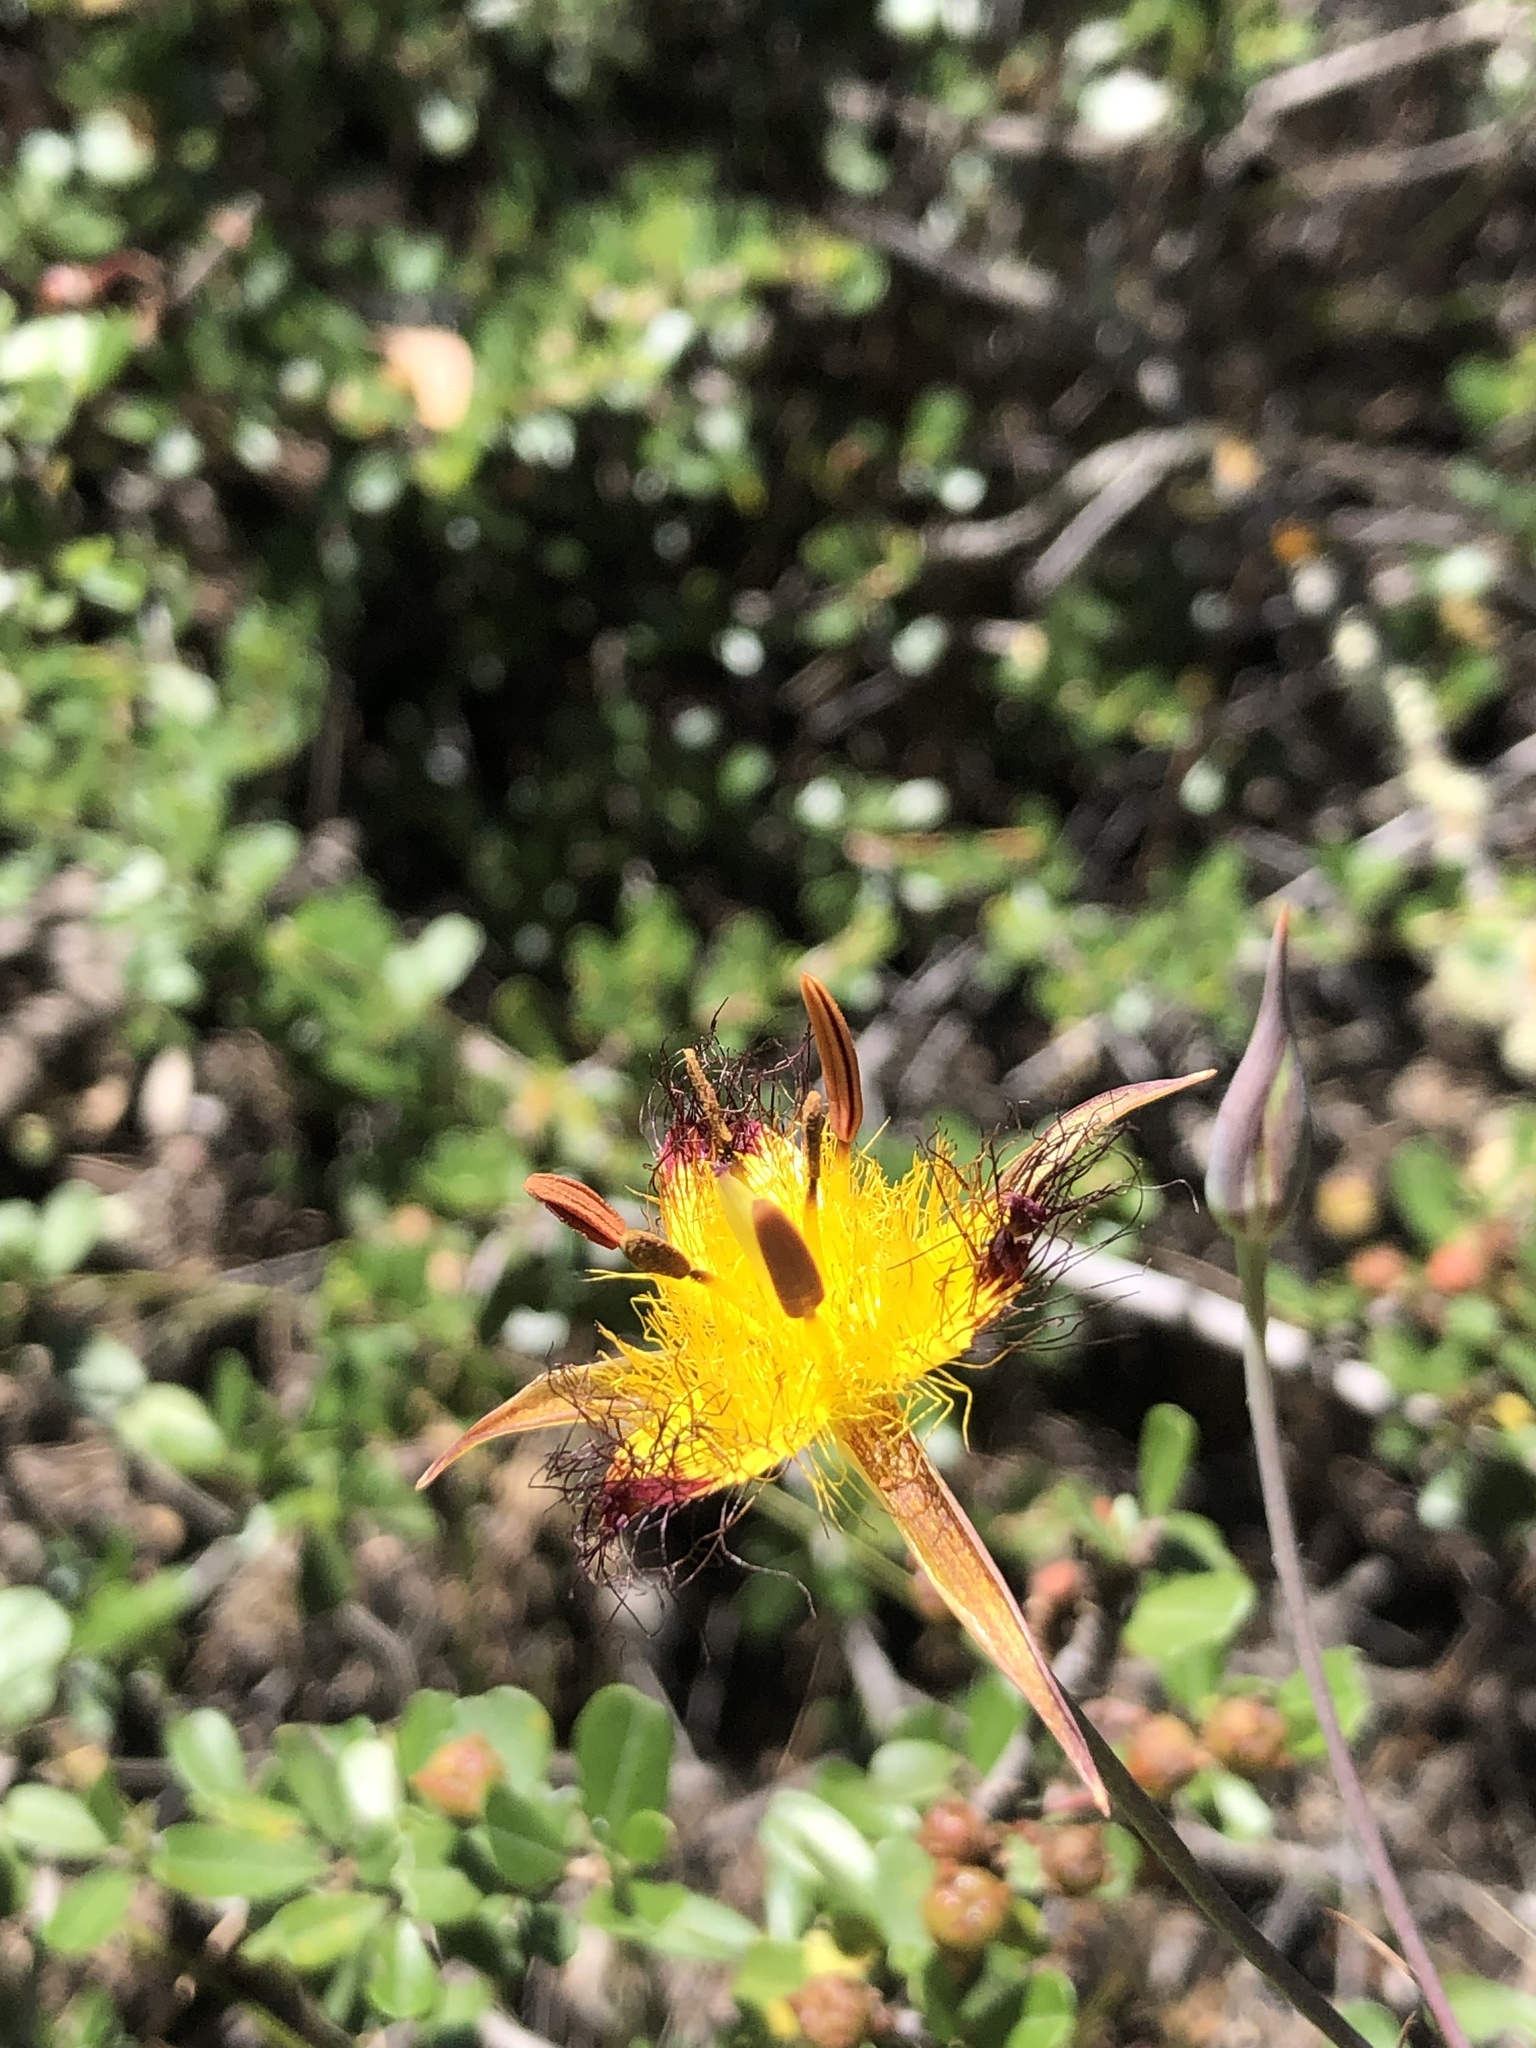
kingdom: Plantae
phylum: Tracheophyta
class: Liliopsida
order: Liliales
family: Liliaceae
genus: Calochortus
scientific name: Calochortus obispoensis
